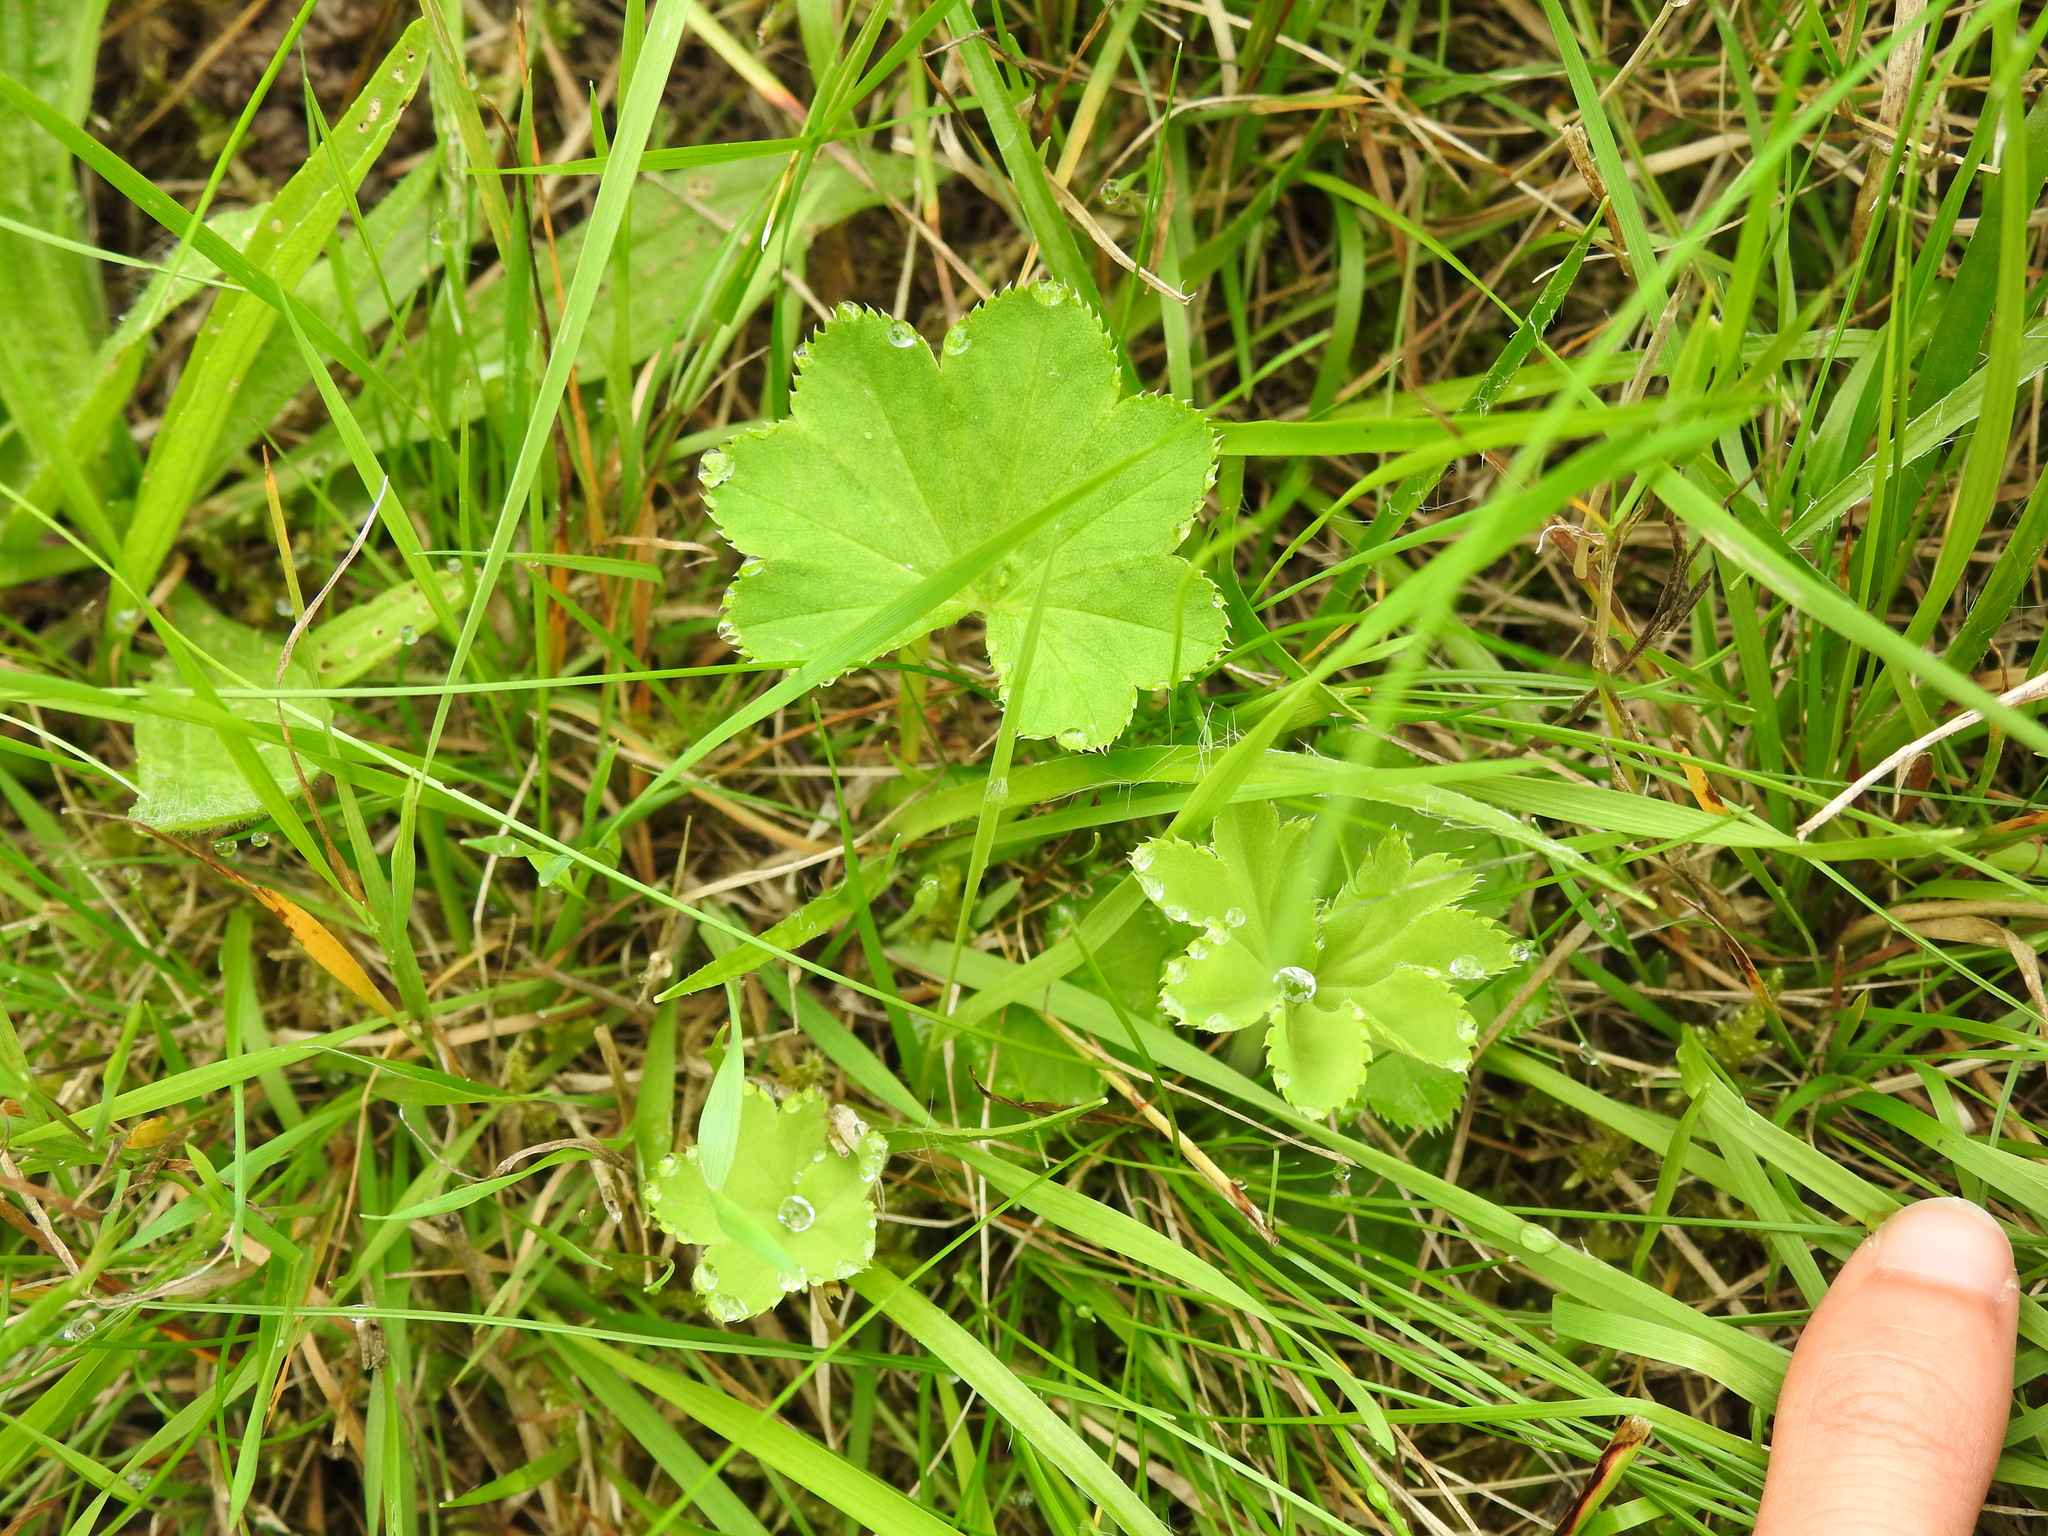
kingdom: Plantae
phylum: Tracheophyta
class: Magnoliopsida
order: Rosales
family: Rosaceae
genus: Alchemilla
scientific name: Alchemilla xanthochlora
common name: Intermediate lady's-mantle
